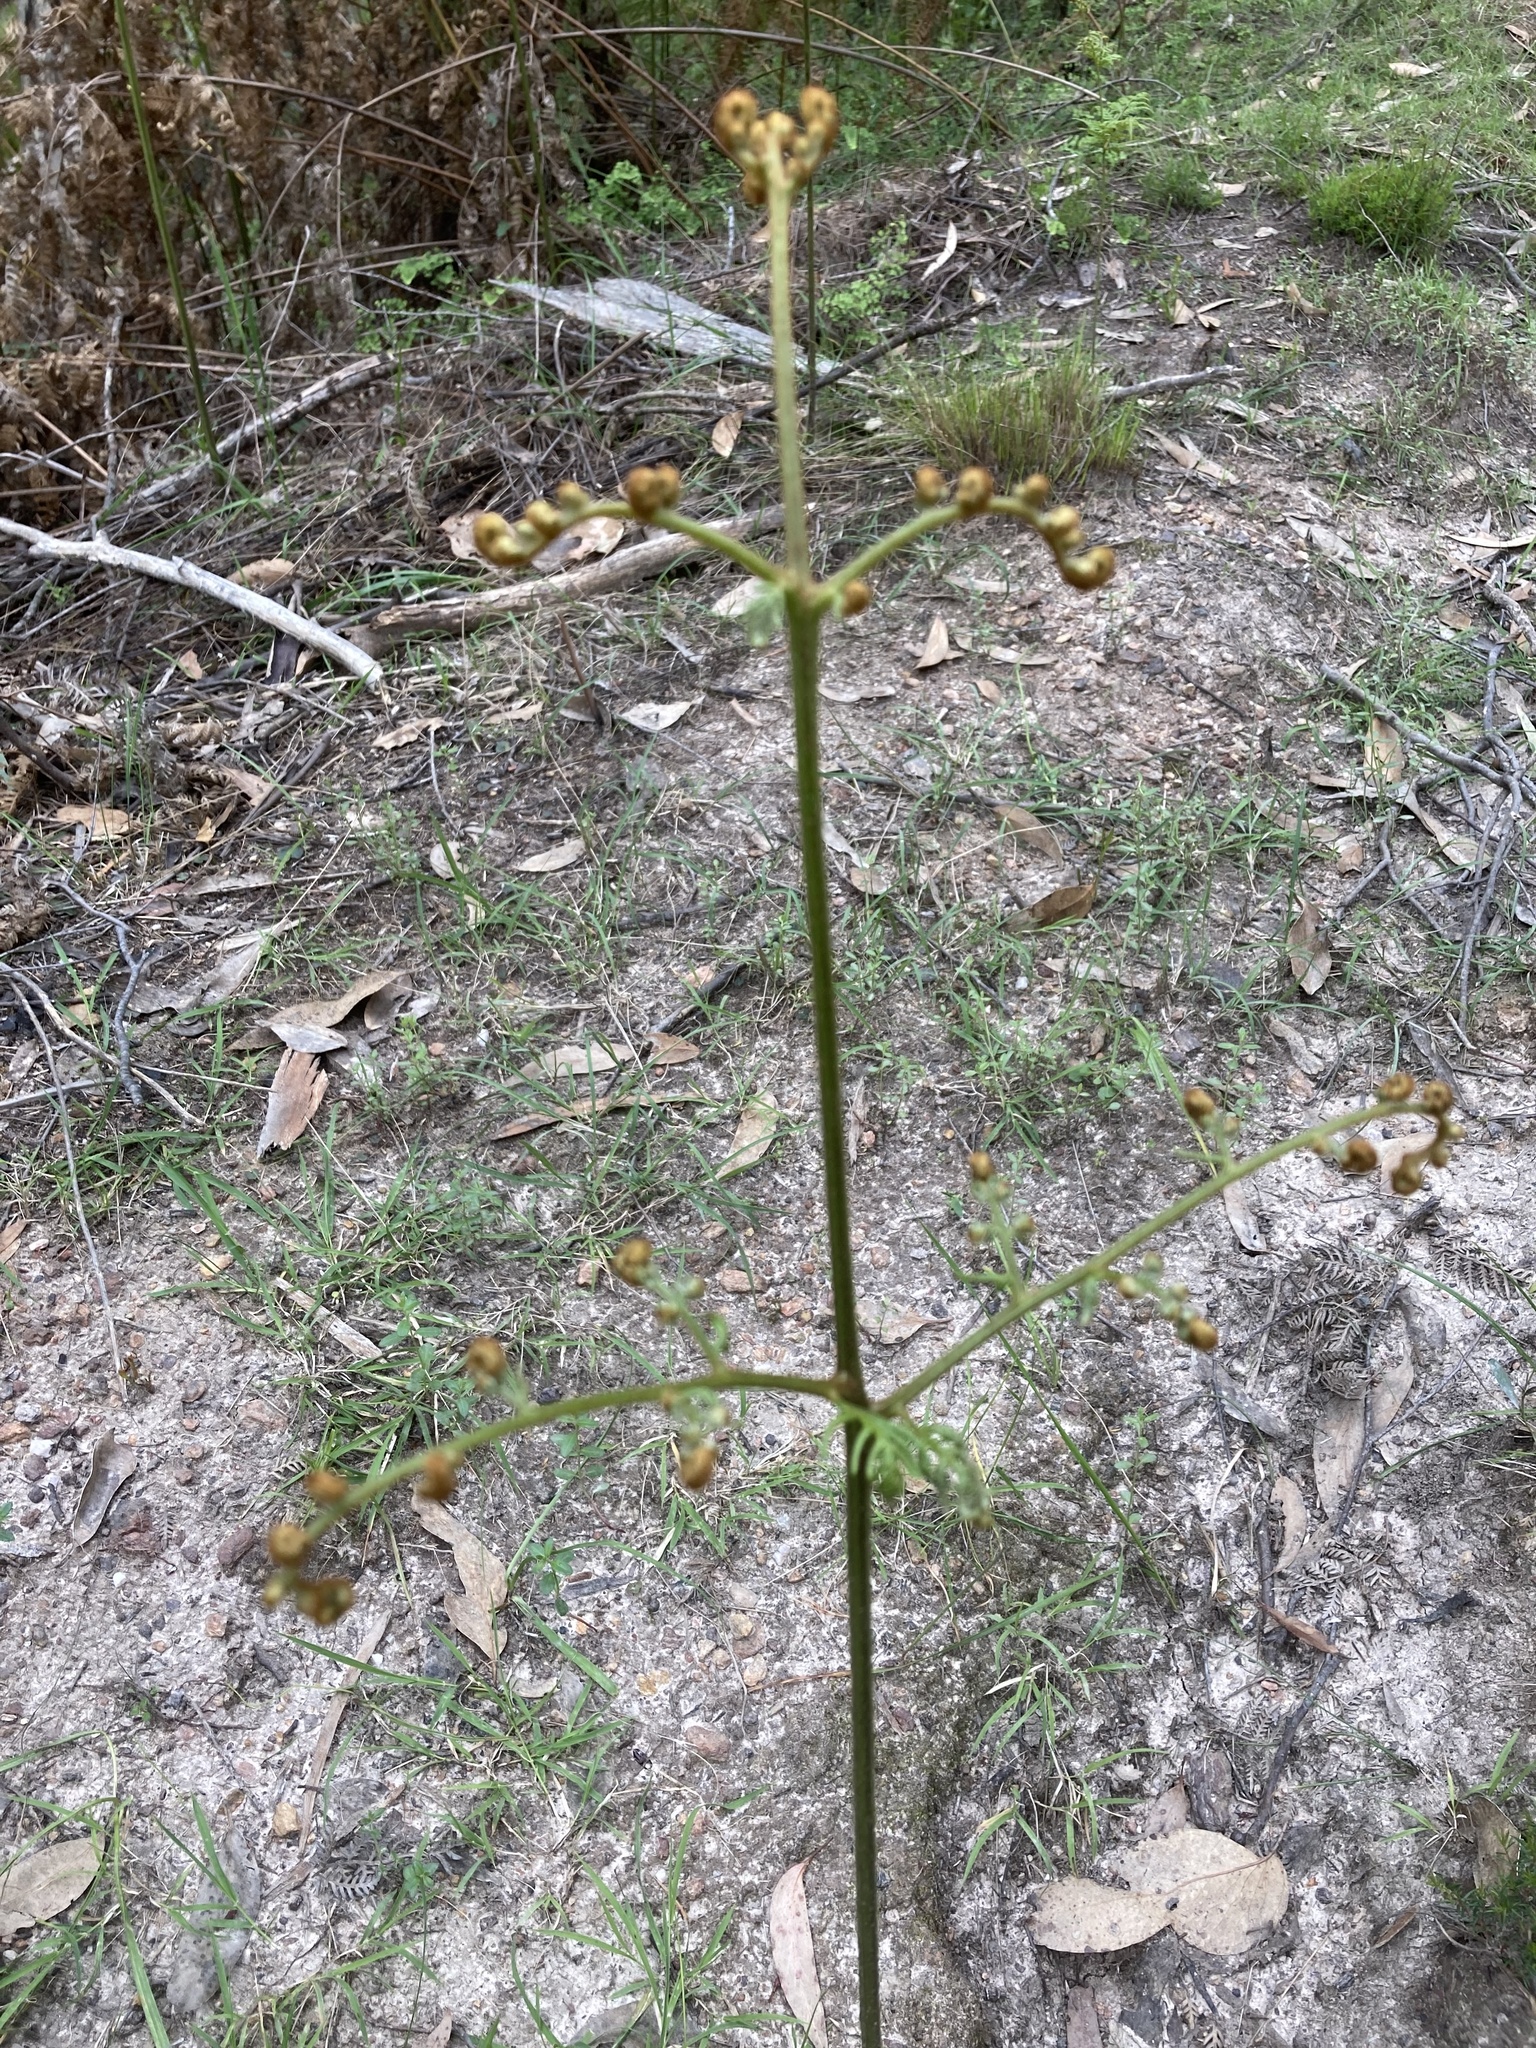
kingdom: Plantae
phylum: Tracheophyta
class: Polypodiopsida
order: Polypodiales
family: Dennstaedtiaceae
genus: Pteridium
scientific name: Pteridium esculentum
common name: Bracken fern
